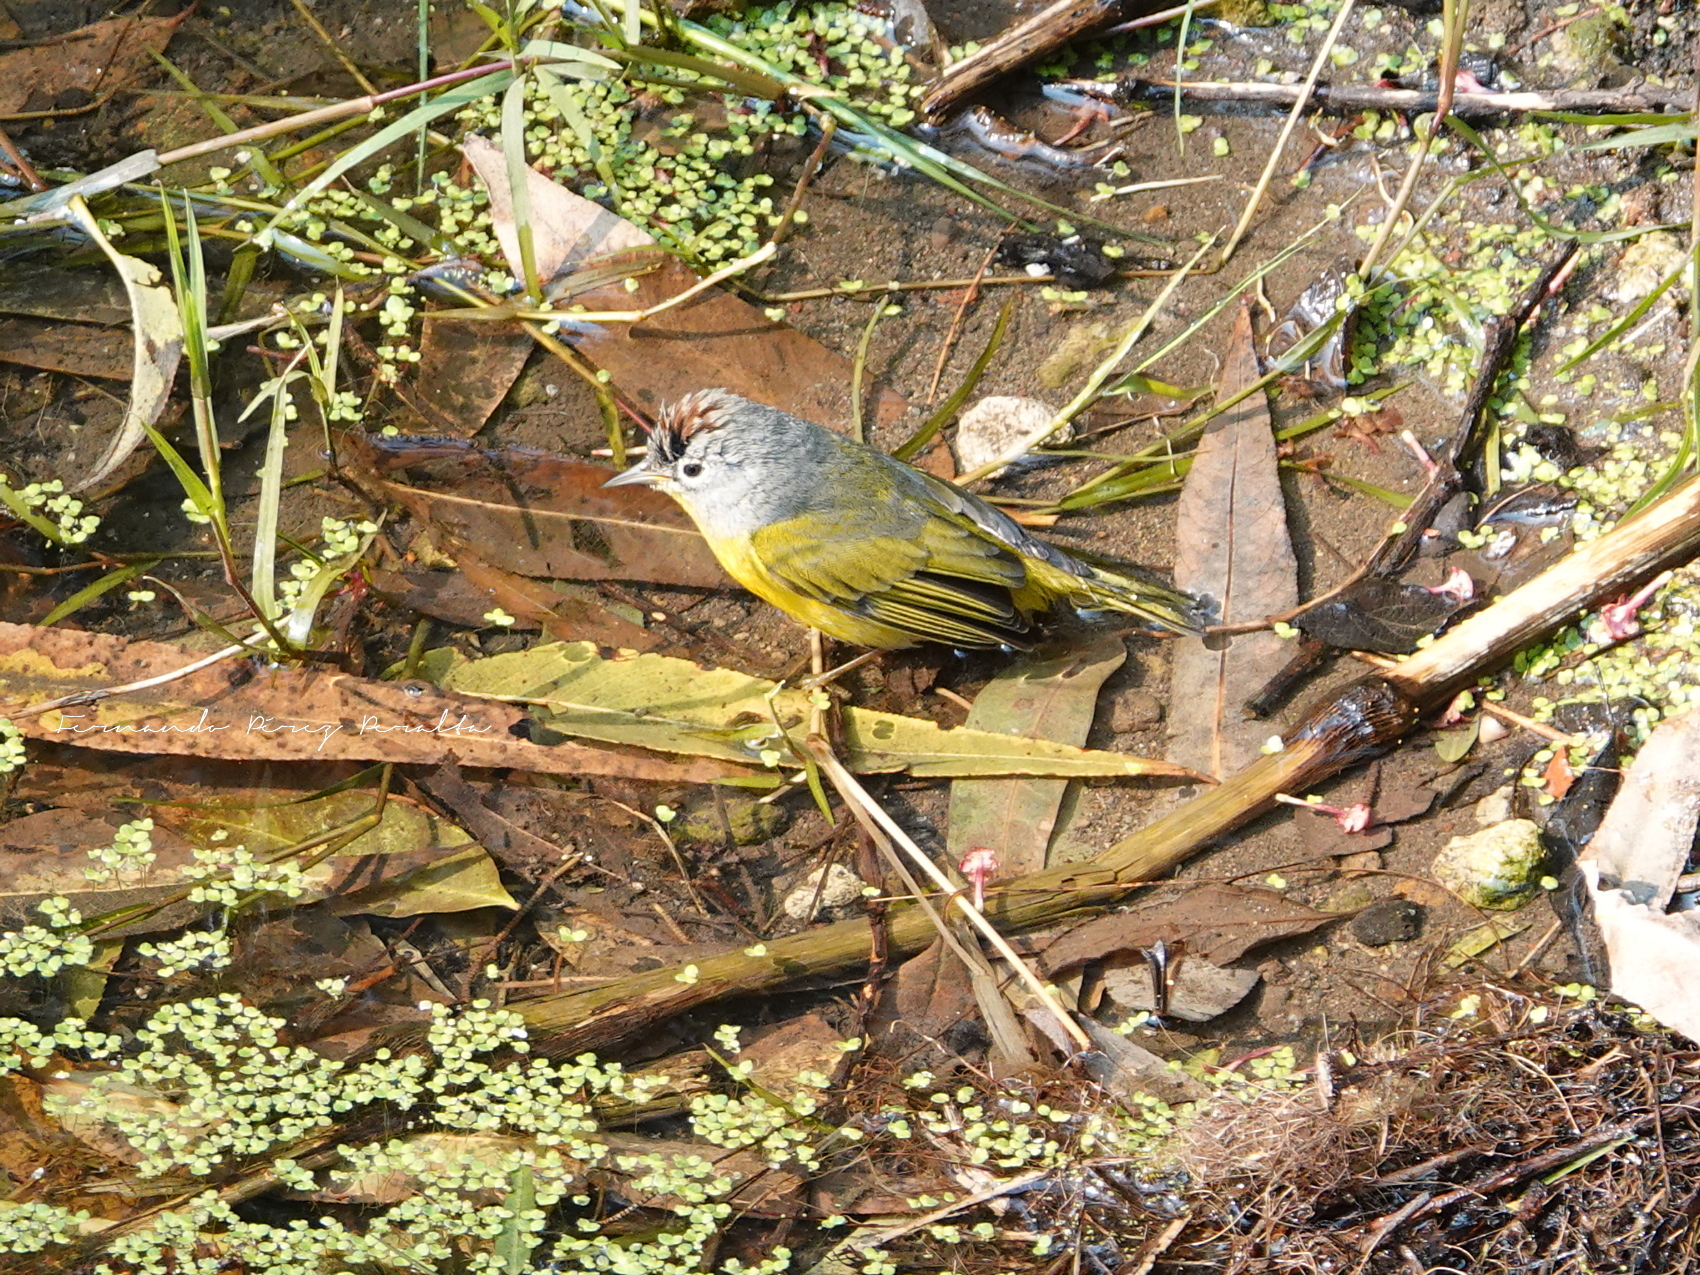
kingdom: Animalia
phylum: Chordata
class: Aves
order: Passeriformes
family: Parulidae
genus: Leiothlypis
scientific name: Leiothlypis ruficapilla
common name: Nashville warbler
